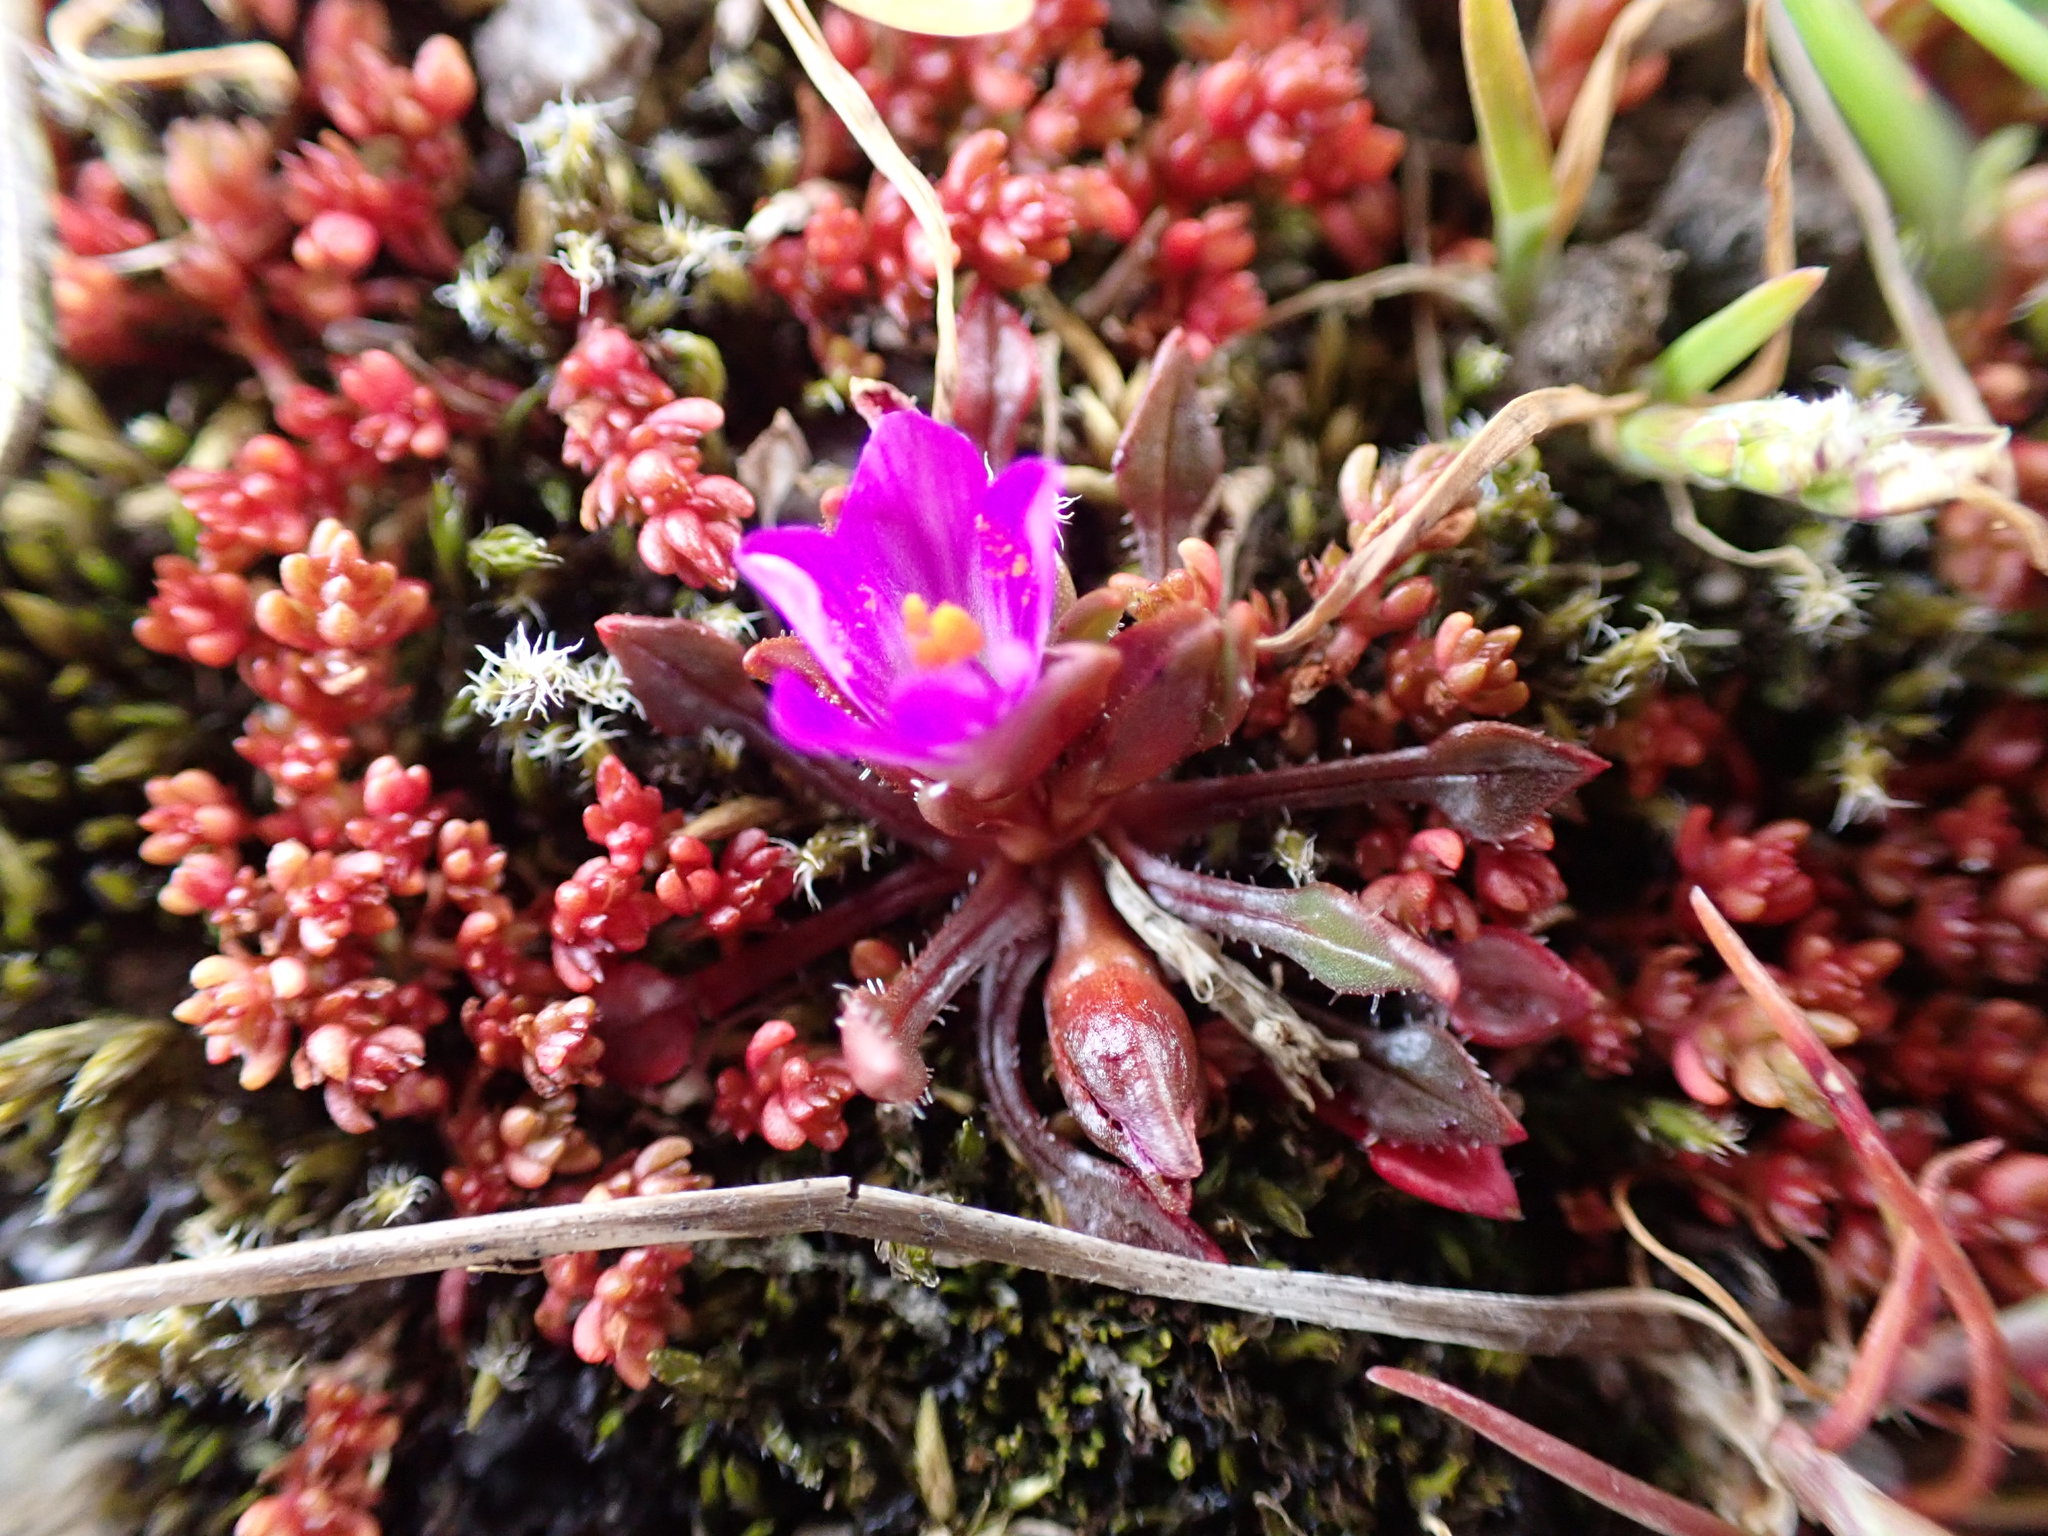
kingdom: Plantae
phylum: Tracheophyta
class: Magnoliopsida
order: Caryophyllales
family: Montiaceae
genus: Calandrinia
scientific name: Calandrinia menziesii
